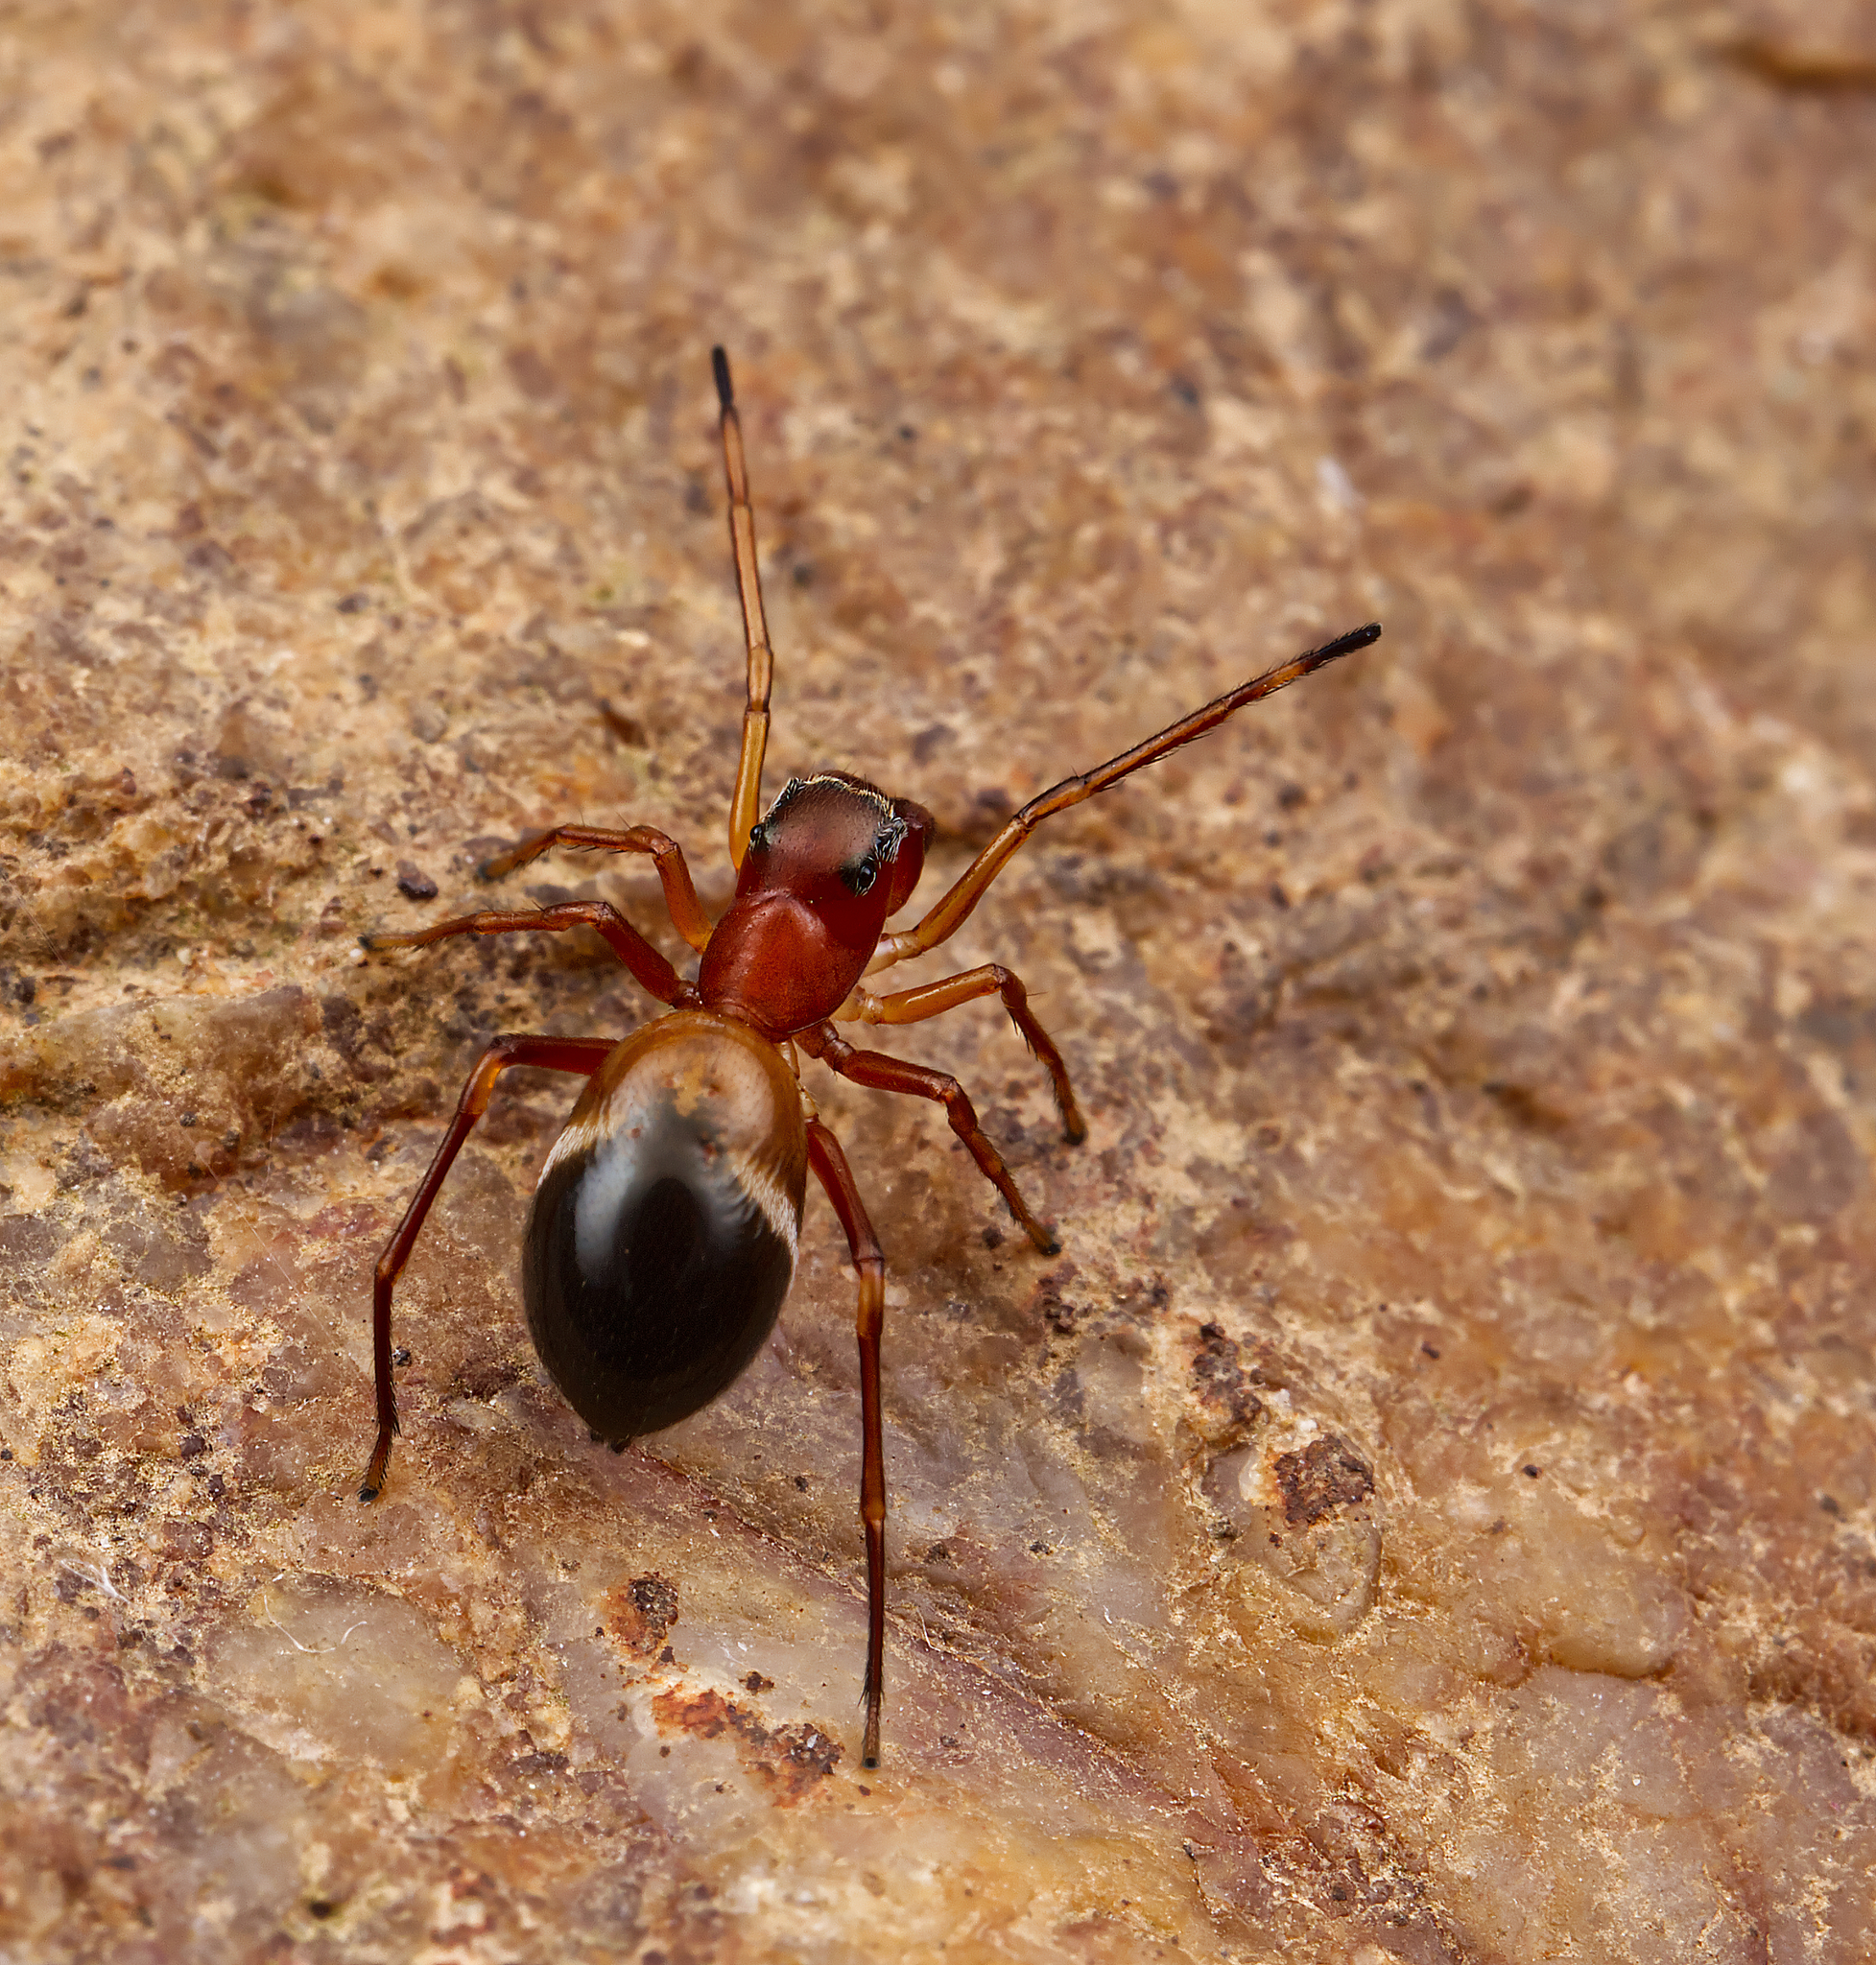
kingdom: Animalia
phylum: Arthropoda
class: Arachnida
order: Araneae
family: Salticidae
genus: Sarinda
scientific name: Sarinda hentzi
